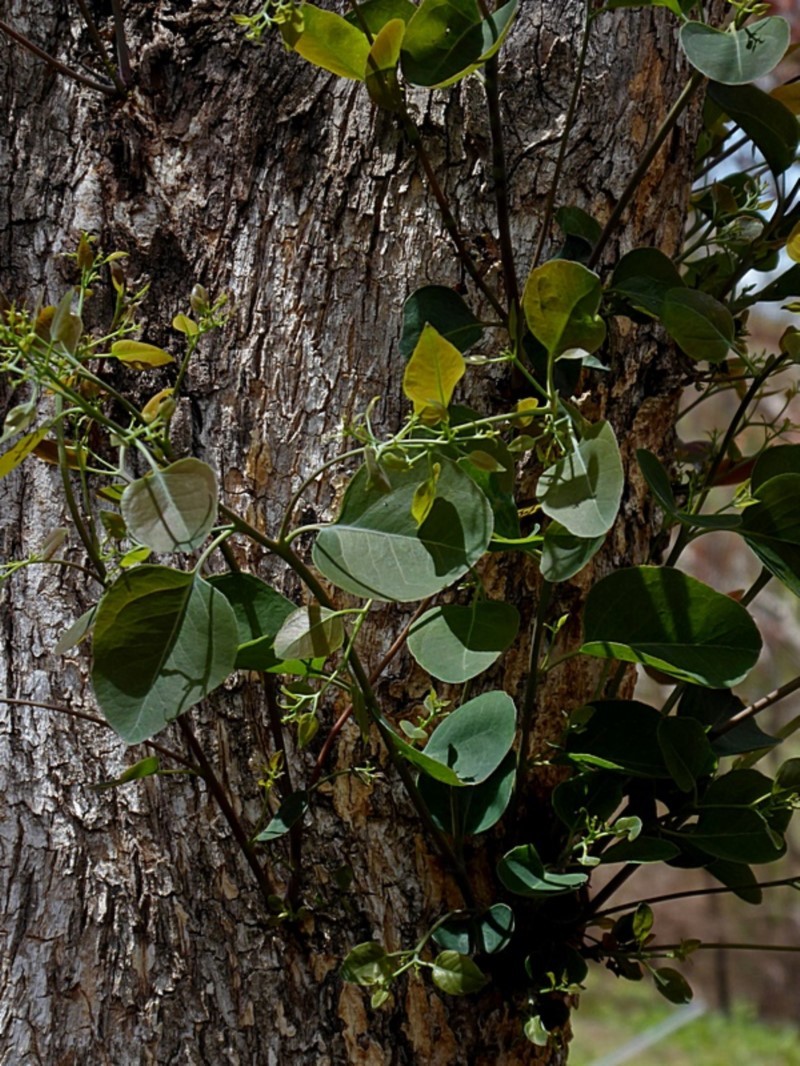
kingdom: Plantae
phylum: Tracheophyta
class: Magnoliopsida
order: Myrtales
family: Myrtaceae
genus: Eucalyptus
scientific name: Eucalyptus baueriana
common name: Round-leaf-box
